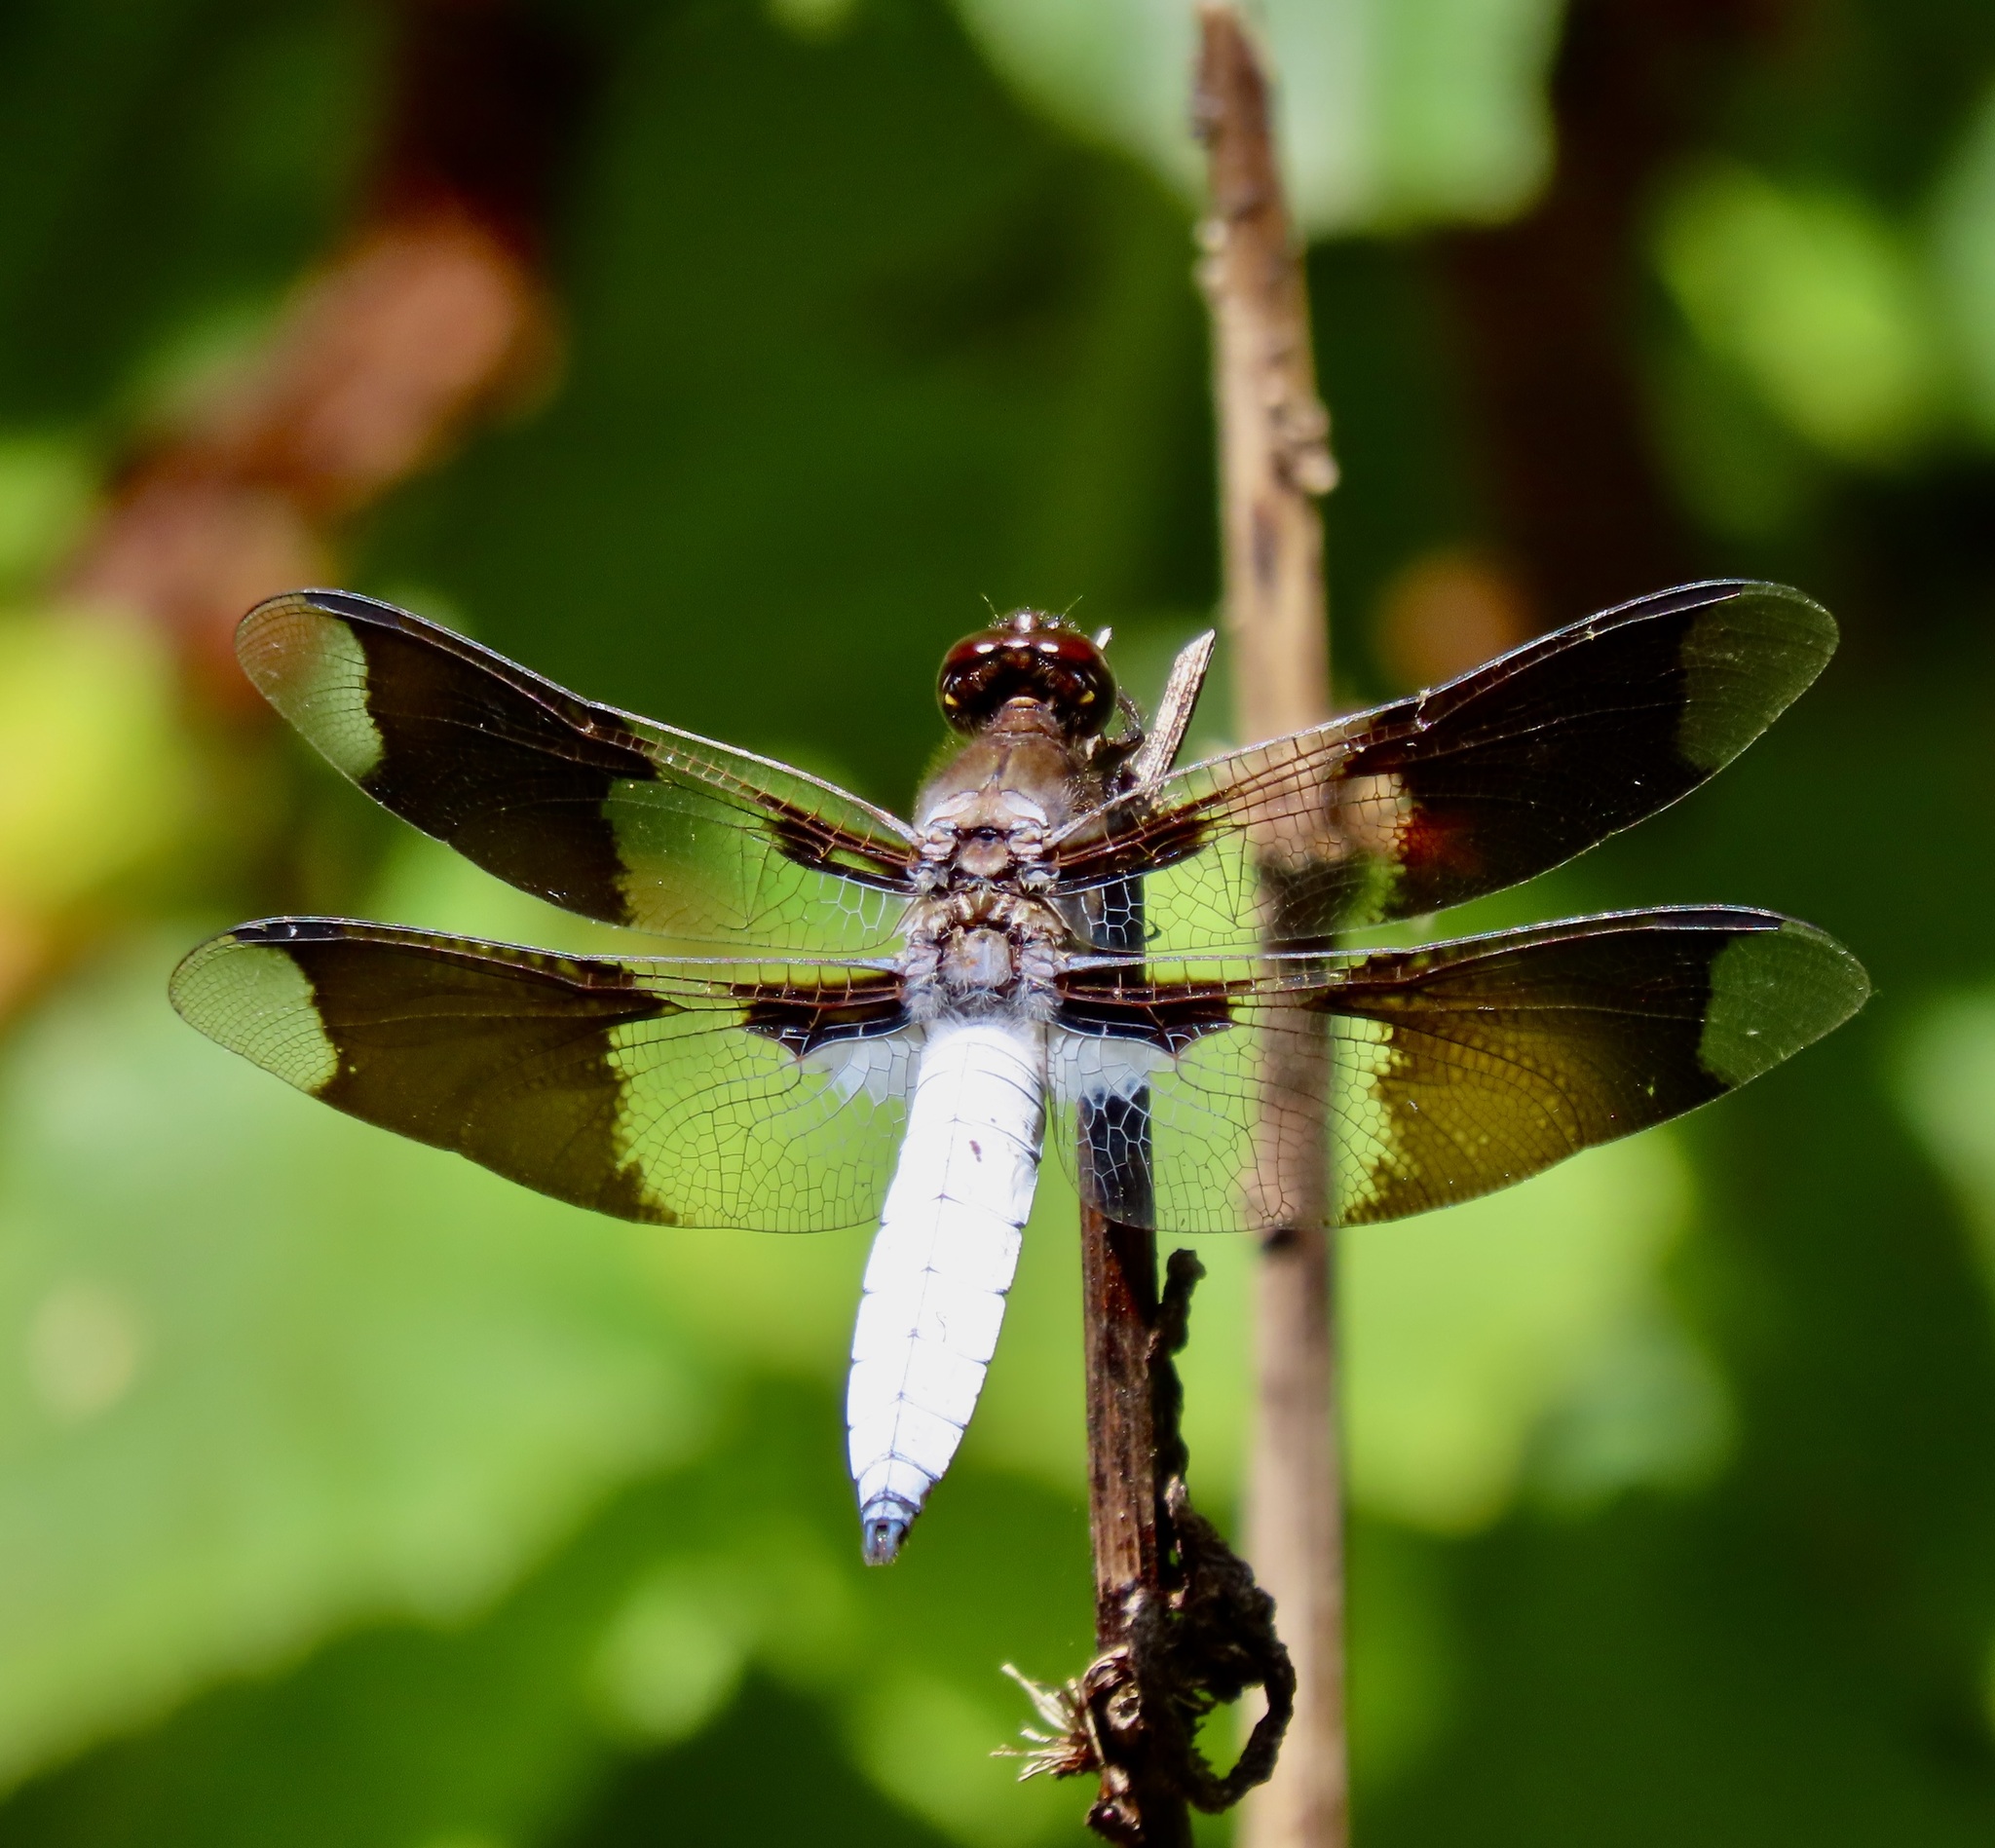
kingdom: Animalia
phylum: Arthropoda
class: Insecta
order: Odonata
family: Libellulidae
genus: Plathemis
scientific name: Plathemis lydia
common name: Common whitetail
